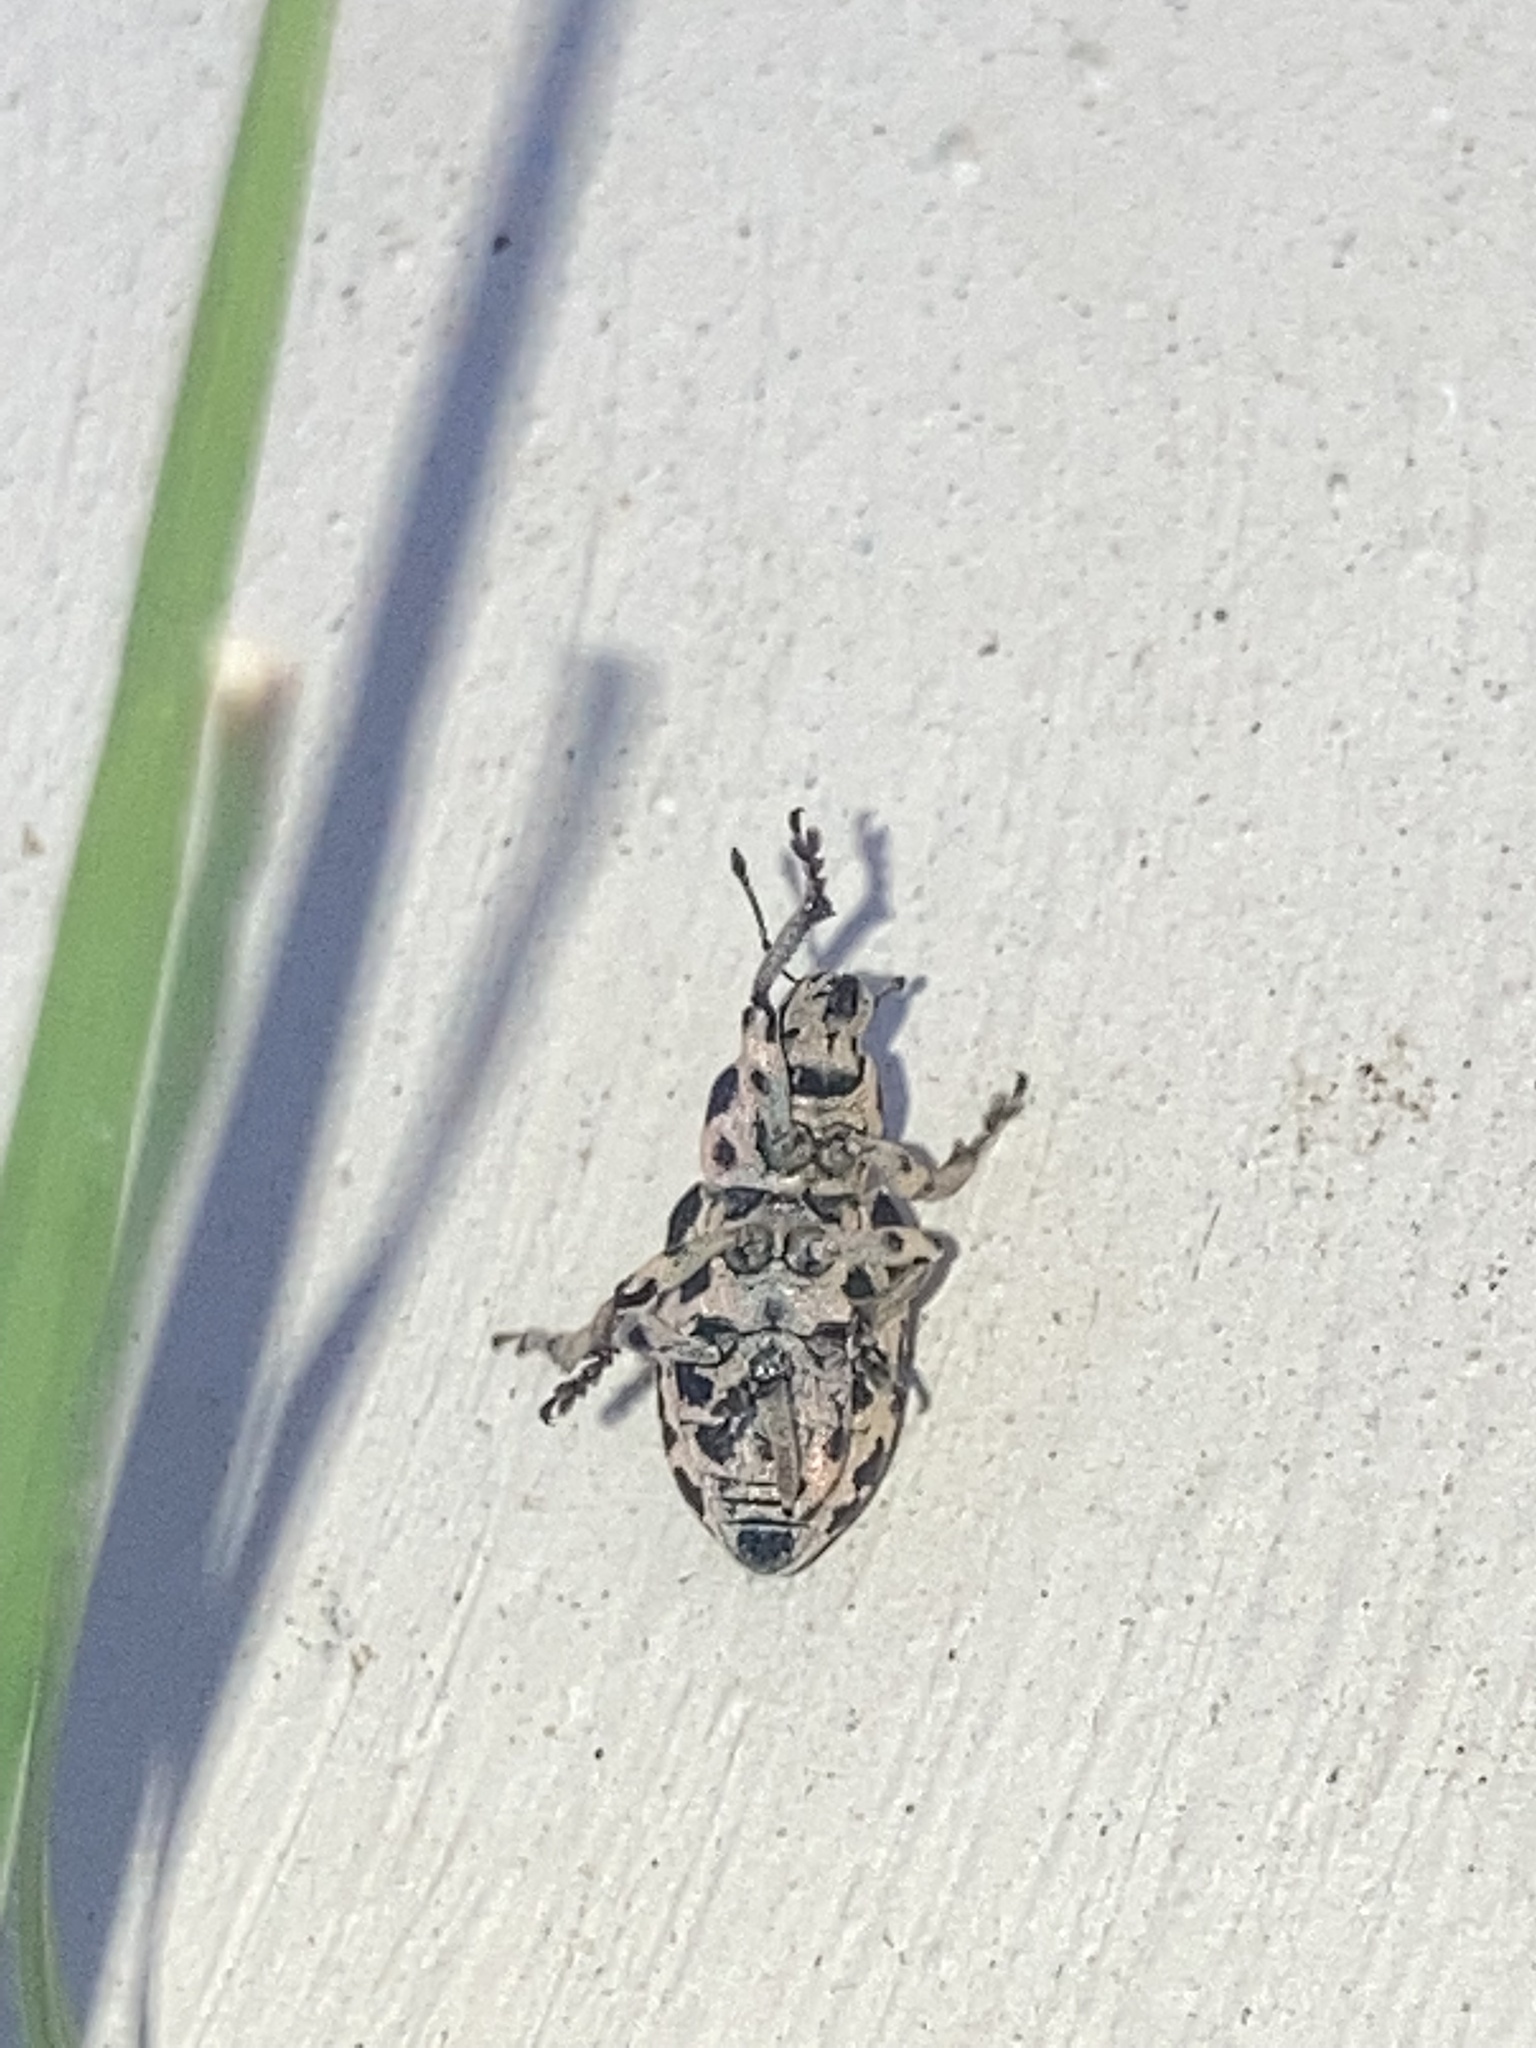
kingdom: Animalia
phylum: Arthropoda
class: Insecta
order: Coleoptera
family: Curculionidae
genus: Eudiagogus
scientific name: Eudiagogus rosenschoeldi
